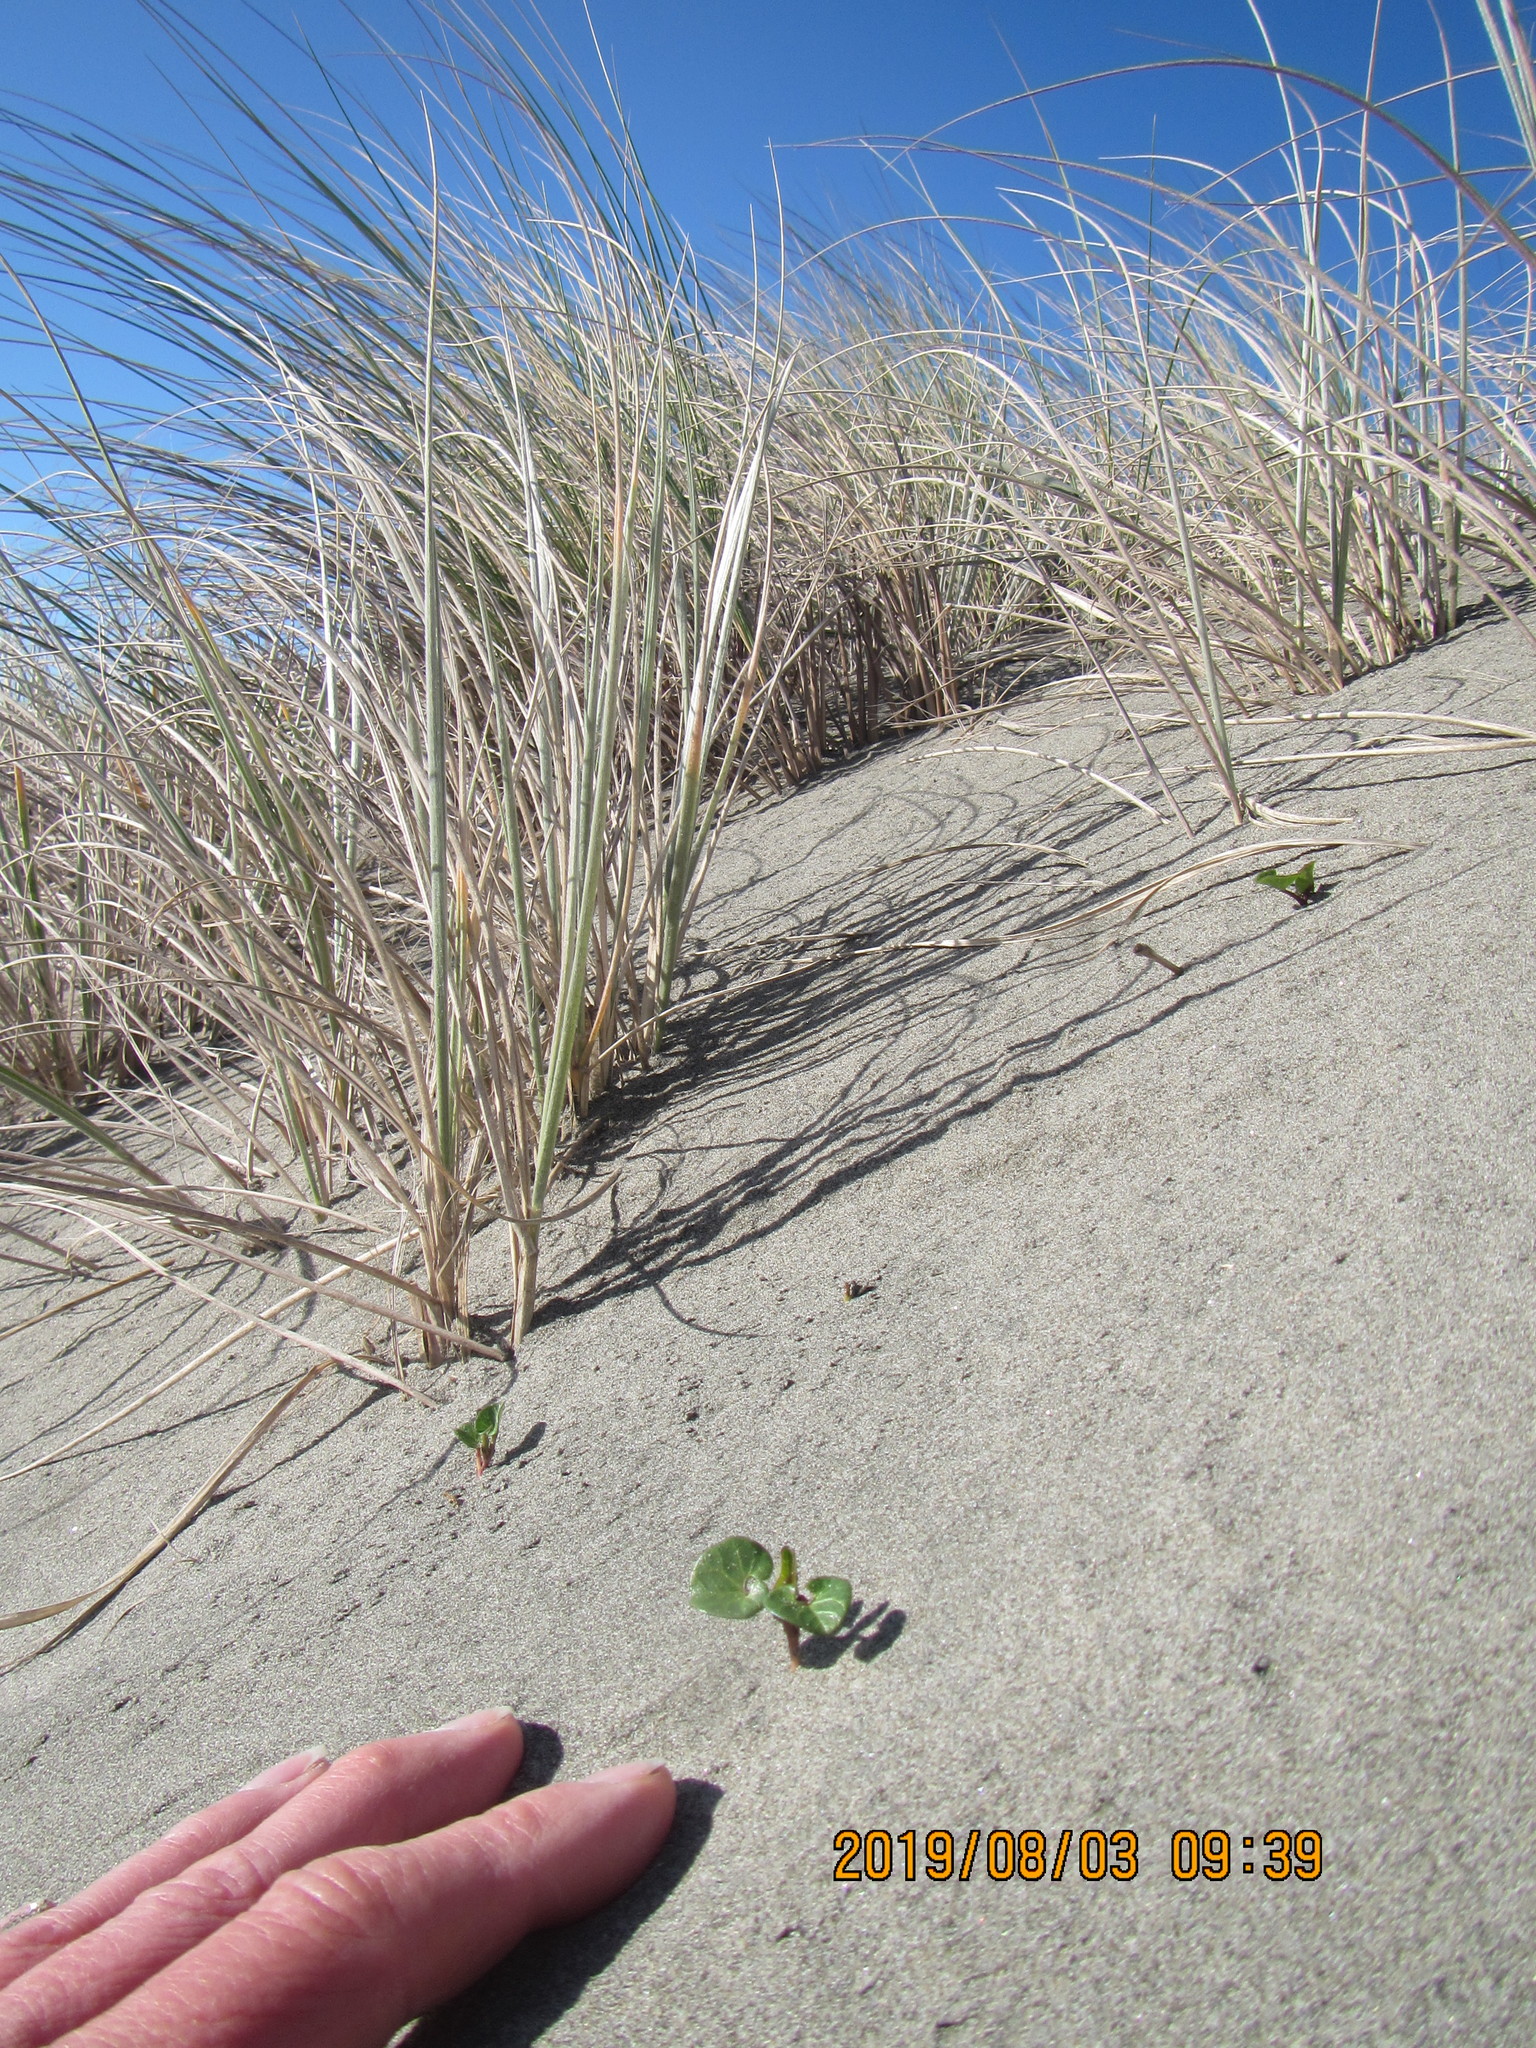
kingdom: Plantae
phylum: Tracheophyta
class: Magnoliopsida
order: Solanales
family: Convolvulaceae
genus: Calystegia
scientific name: Calystegia soldanella
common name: Sea bindweed
